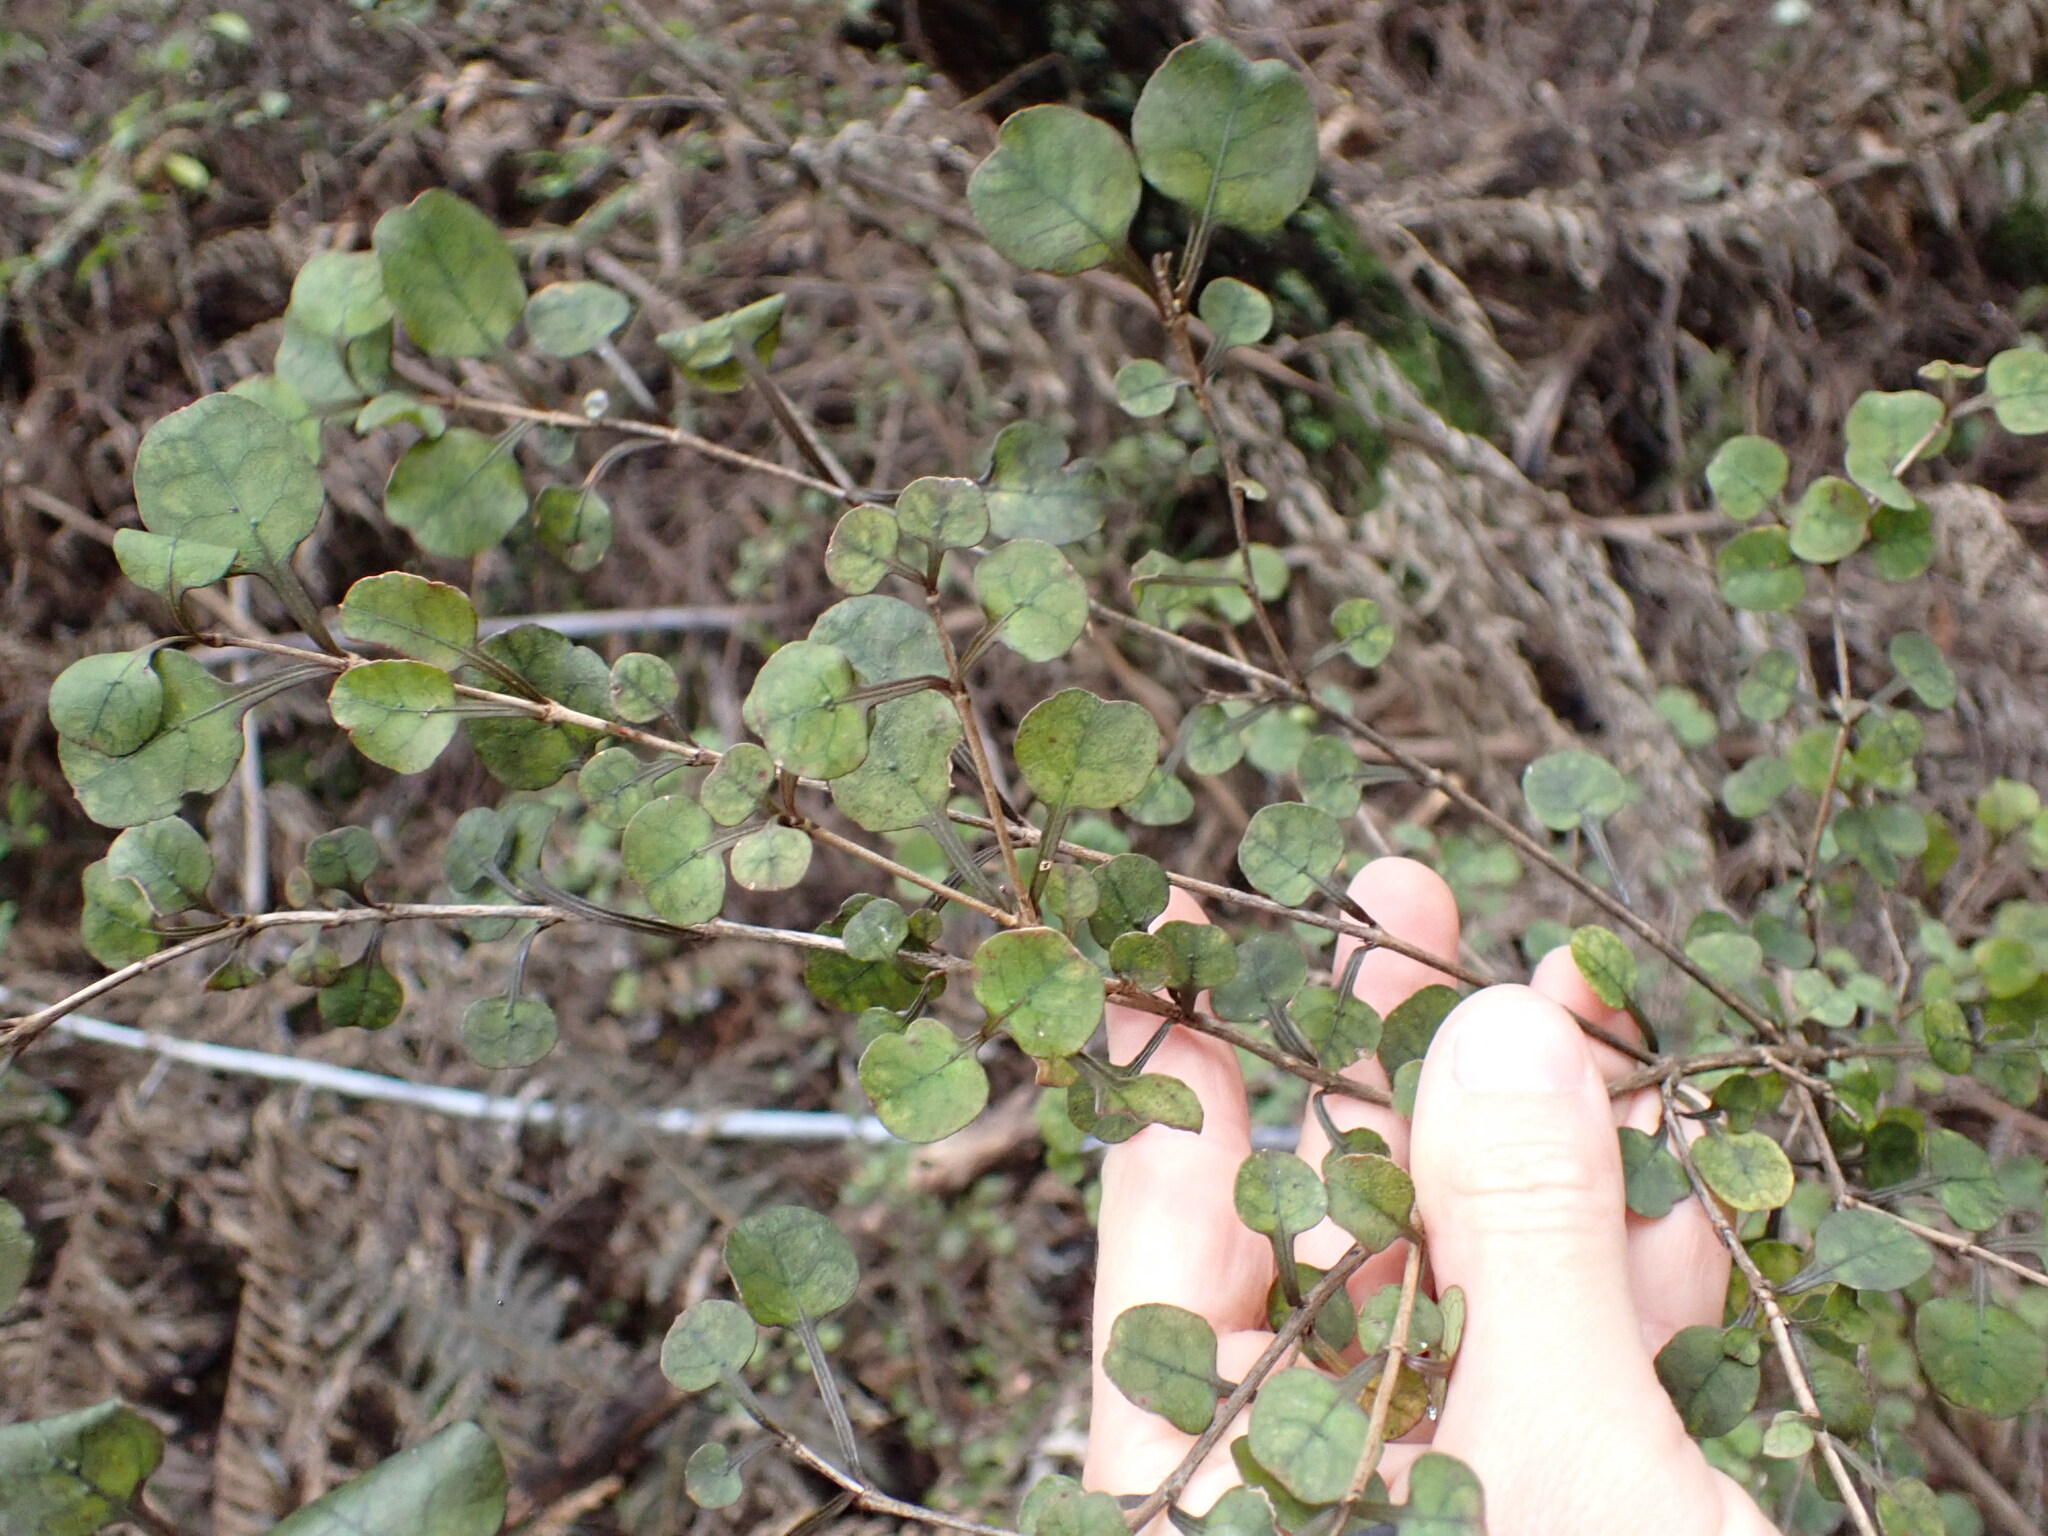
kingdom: Plantae
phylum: Tracheophyta
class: Magnoliopsida
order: Gentianales
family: Rubiaceae
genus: Coprosma
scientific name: Coprosma spathulata
